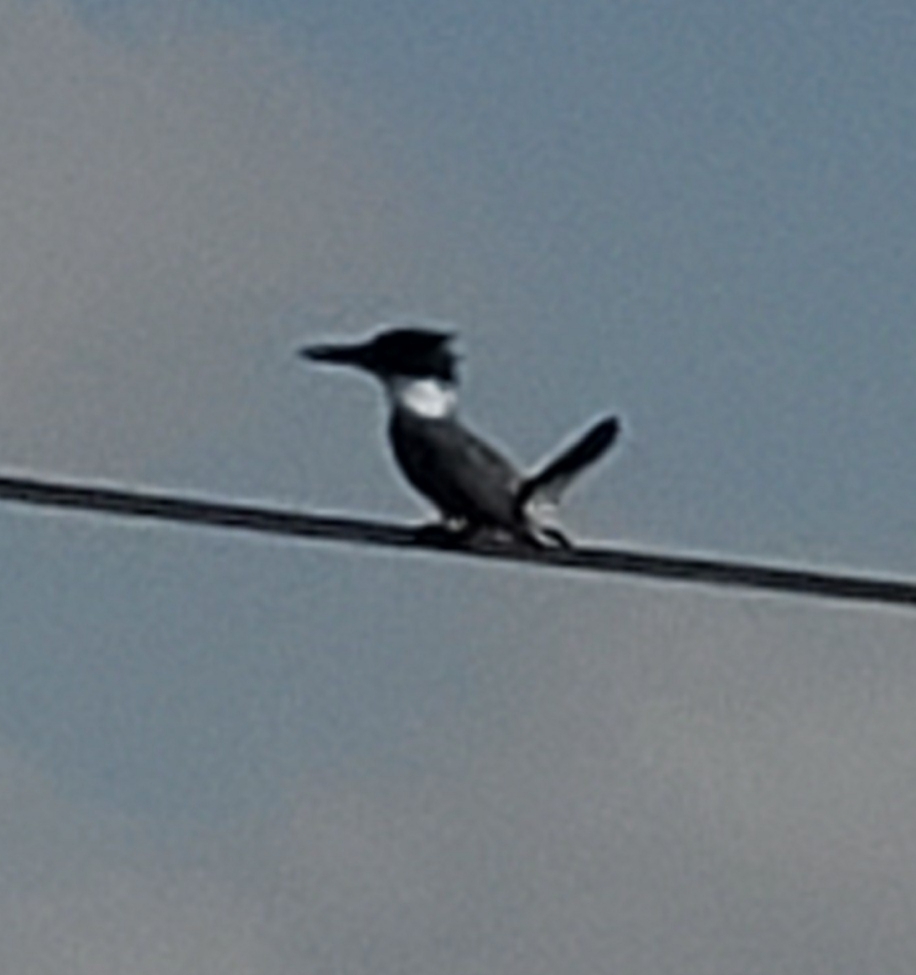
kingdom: Animalia
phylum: Chordata
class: Aves
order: Coraciiformes
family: Alcedinidae
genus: Megaceryle
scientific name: Megaceryle alcyon
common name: Belted kingfisher
